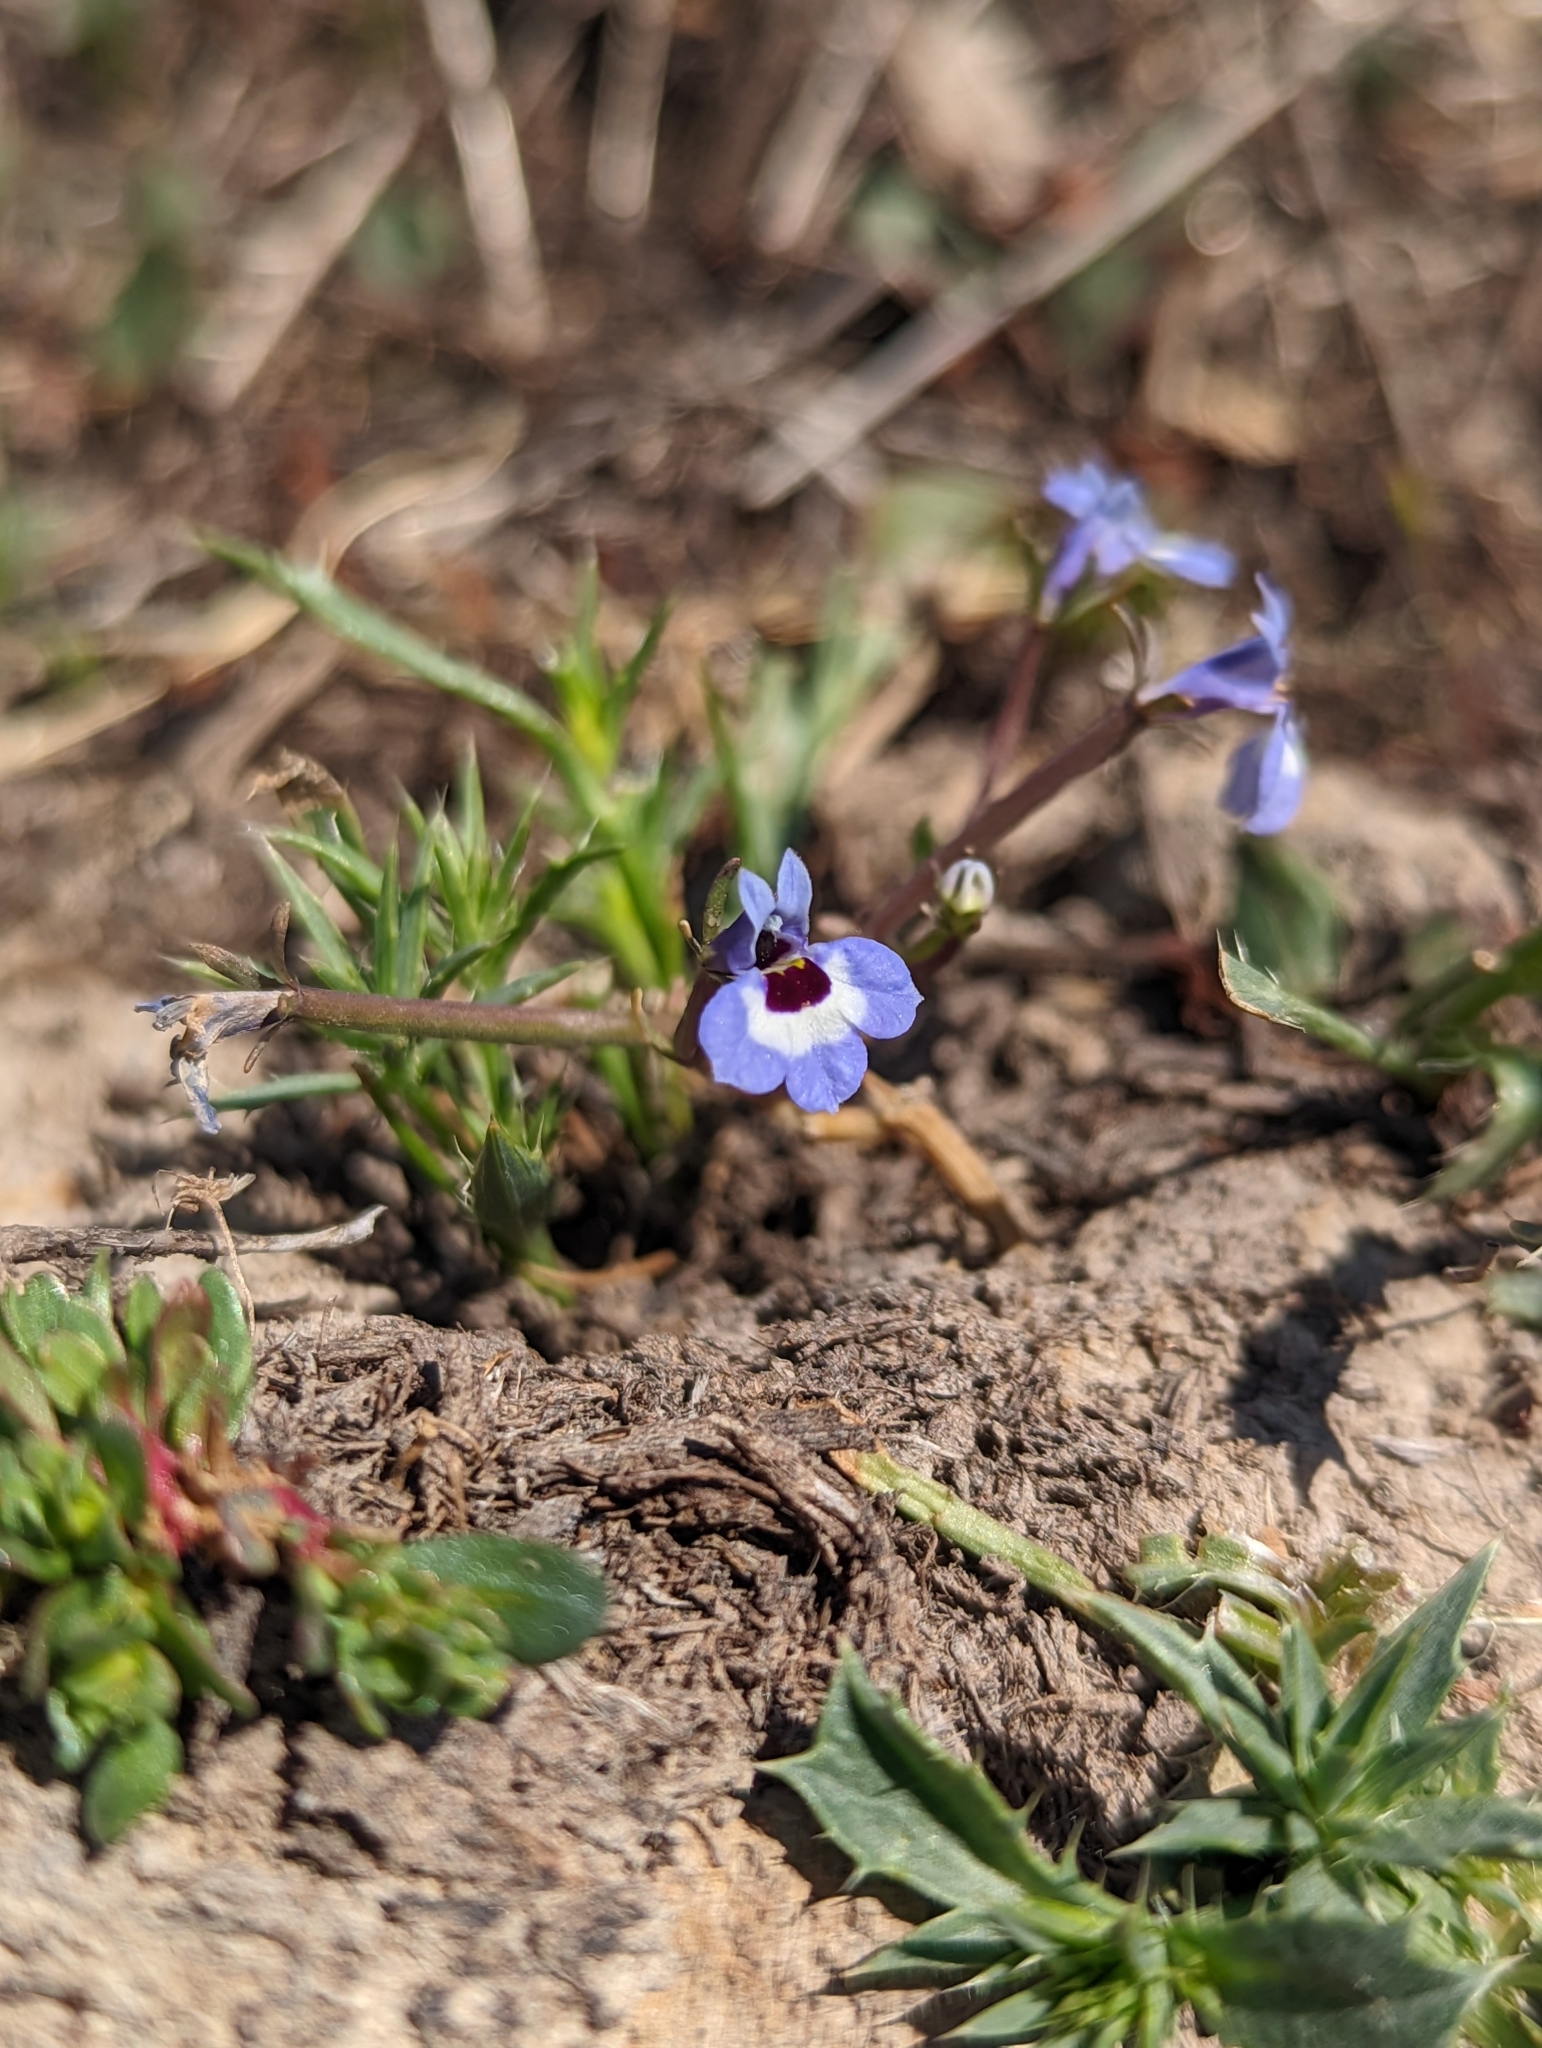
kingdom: Plantae
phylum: Tracheophyta
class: Magnoliopsida
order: Asterales
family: Campanulaceae
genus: Downingia
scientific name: Downingia concolor
